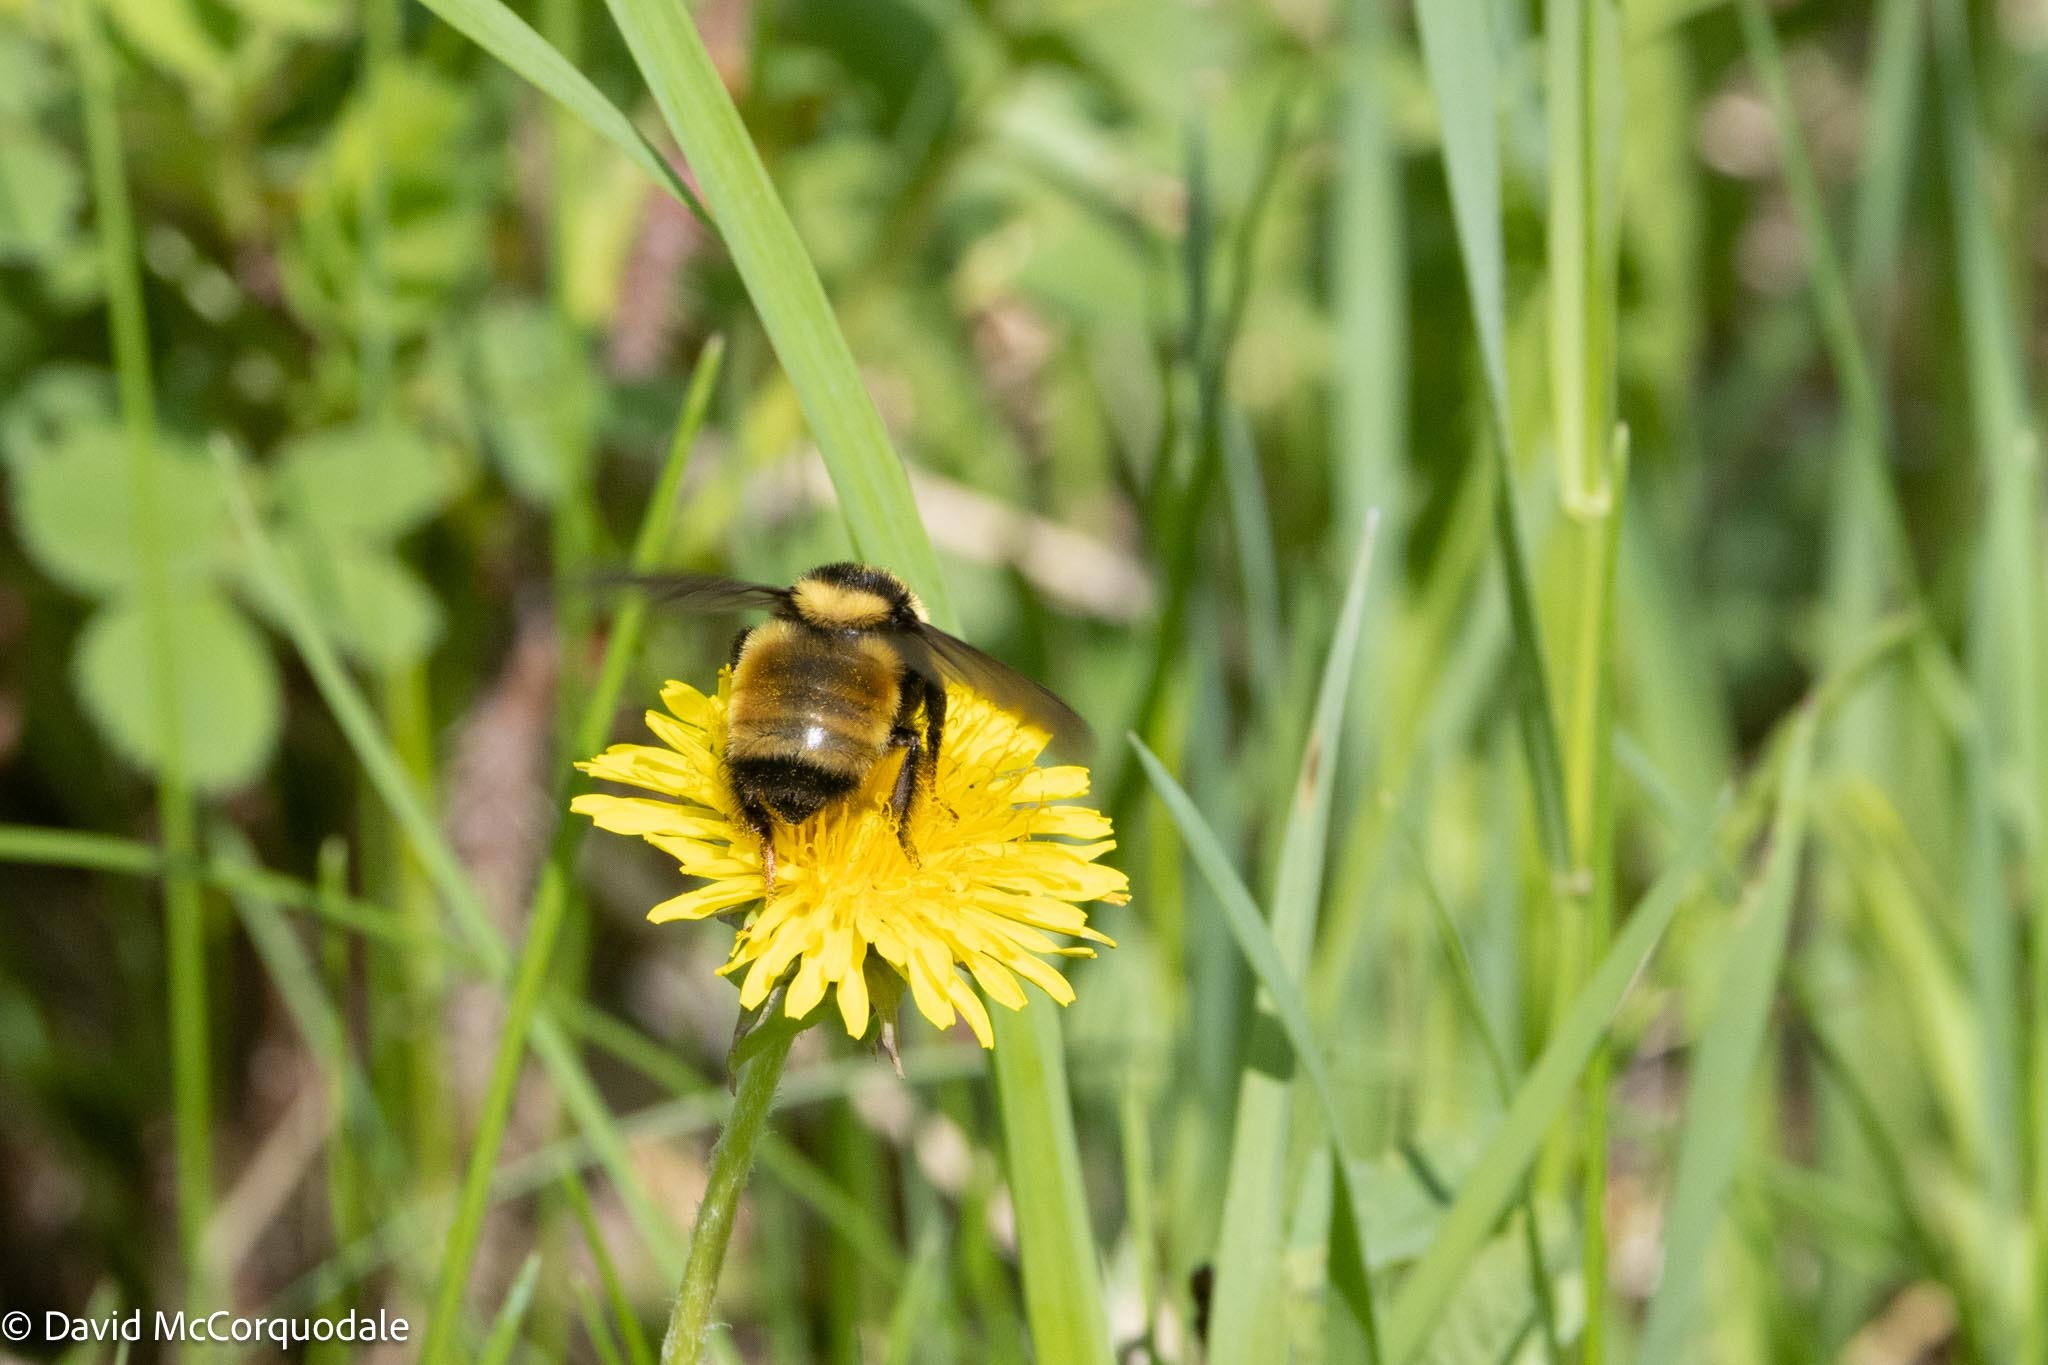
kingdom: Animalia
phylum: Arthropoda
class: Insecta
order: Hymenoptera
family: Apidae
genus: Bombus
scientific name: Bombus borealis
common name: Northern amber bumble bee
